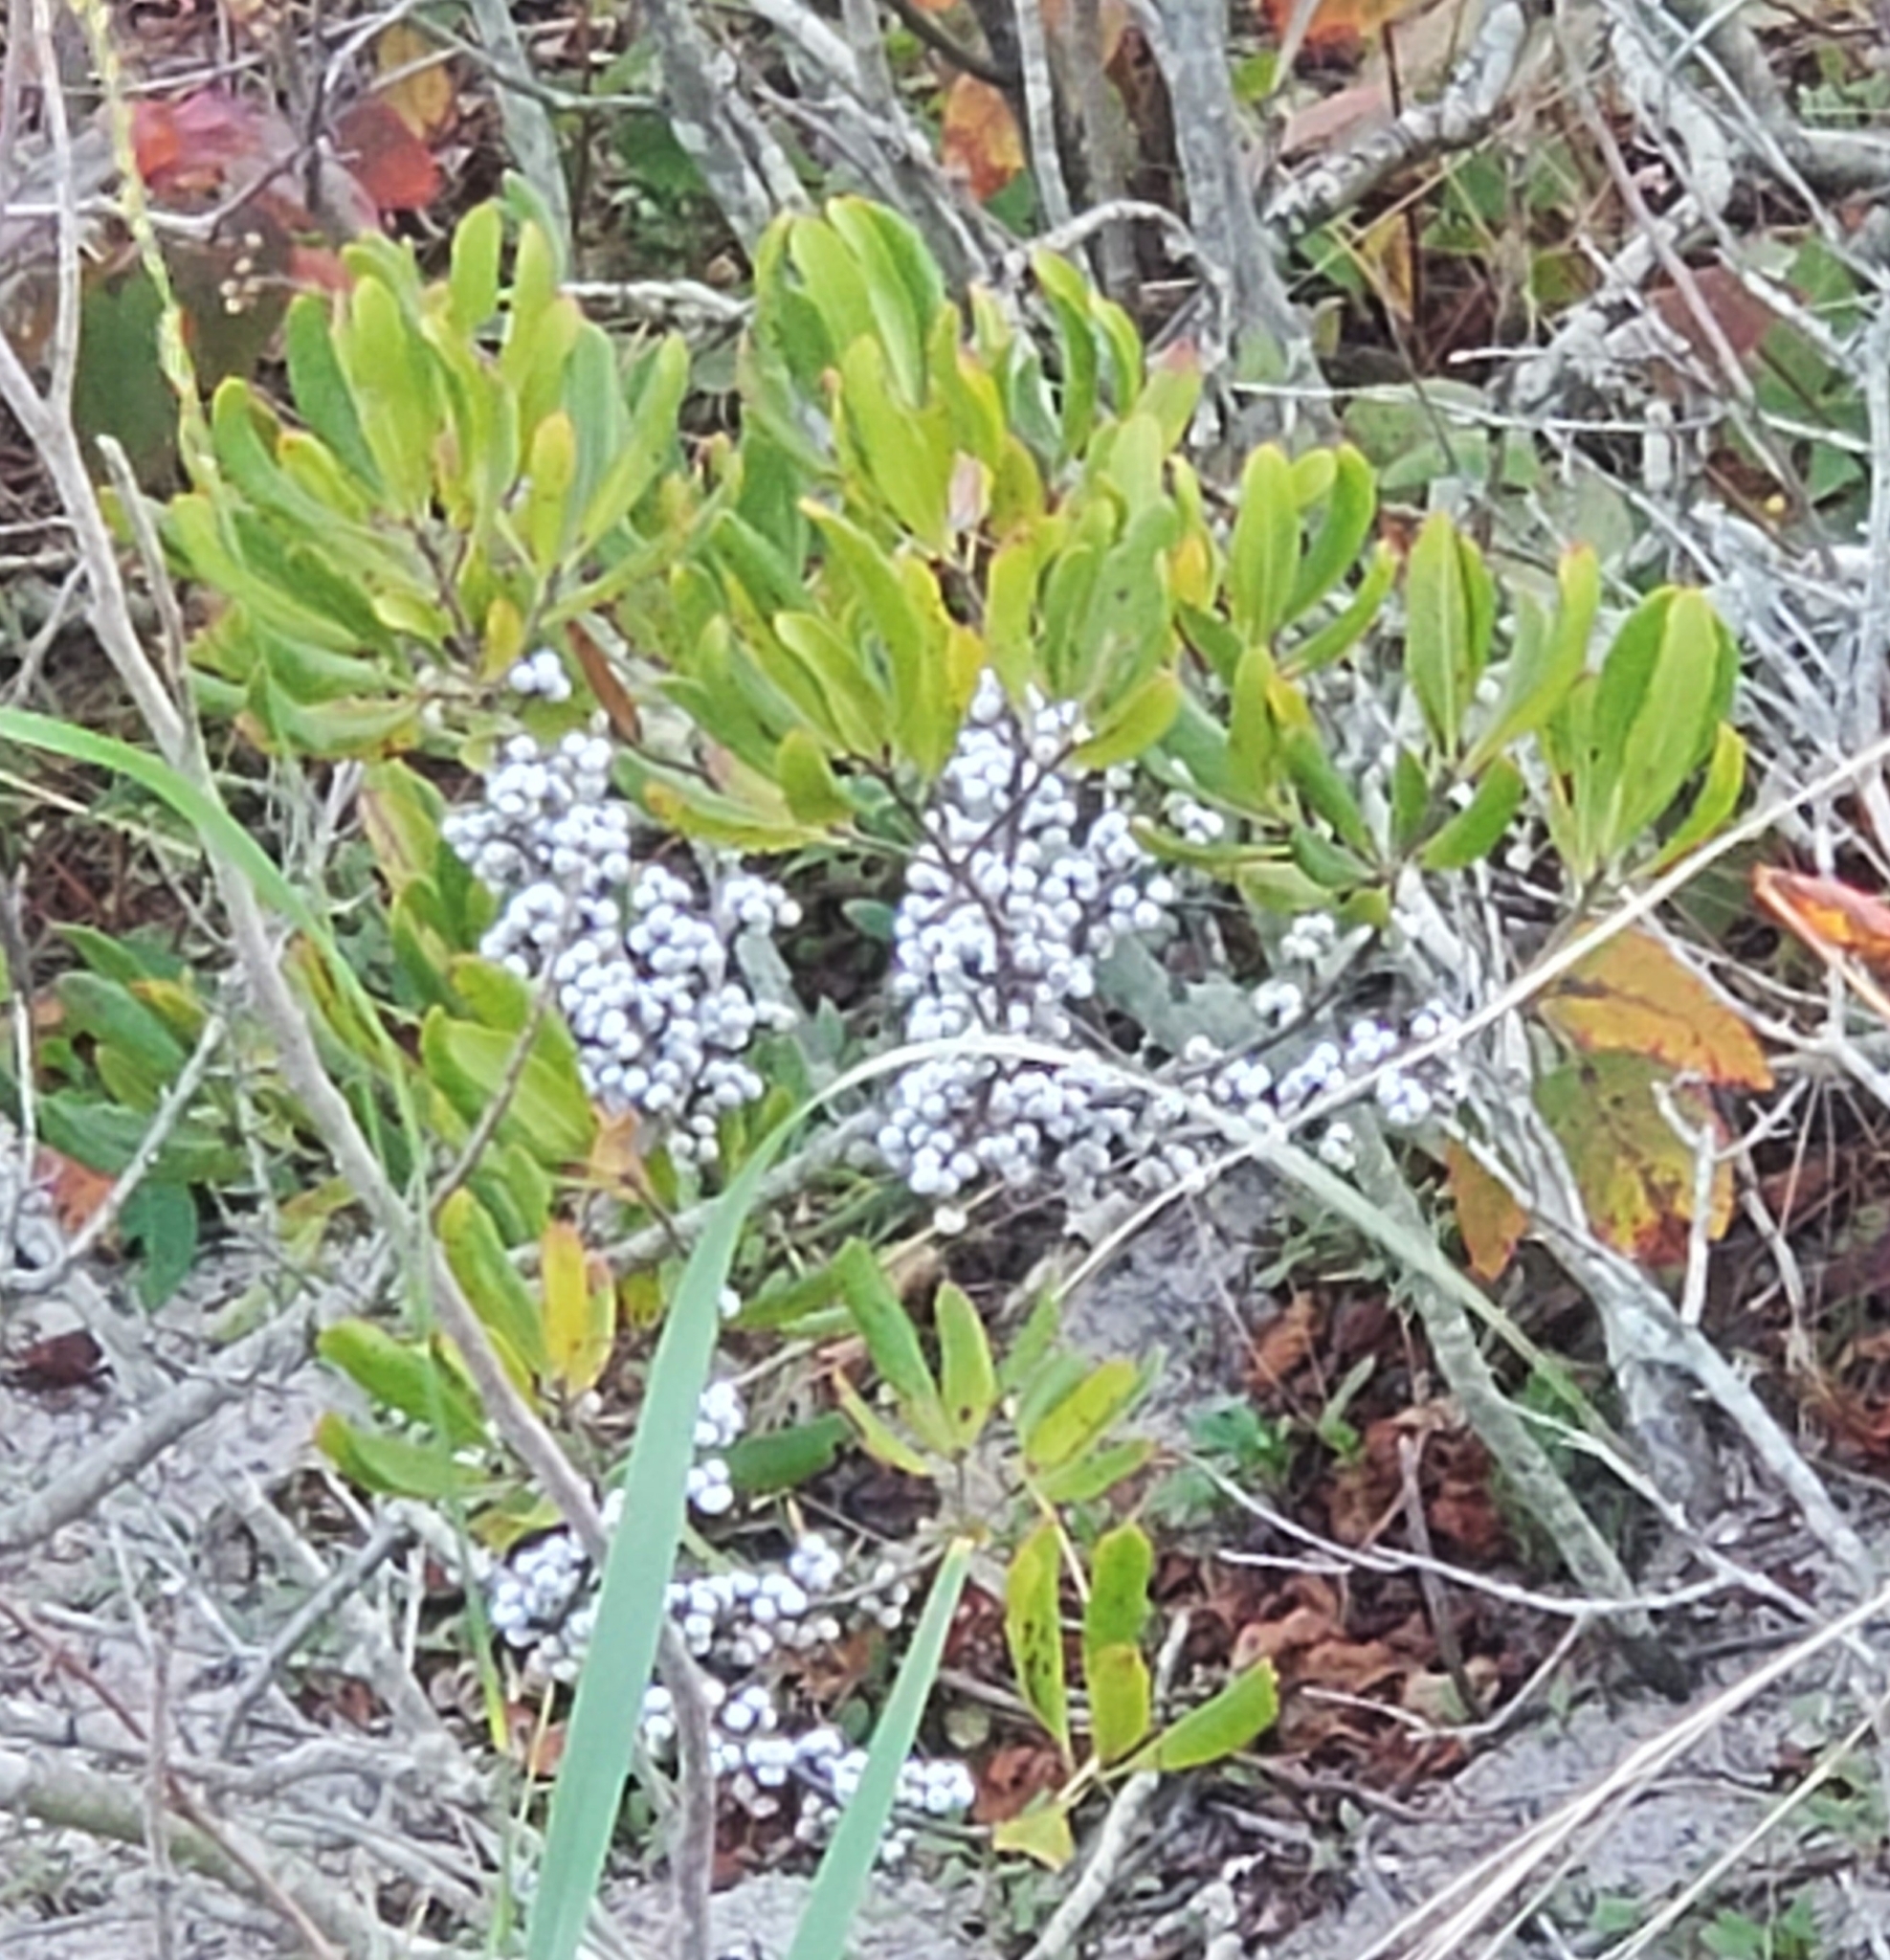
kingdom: Plantae
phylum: Tracheophyta
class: Magnoliopsida
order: Fagales
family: Myricaceae
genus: Morella
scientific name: Morella pensylvanica
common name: Northern bayberry
